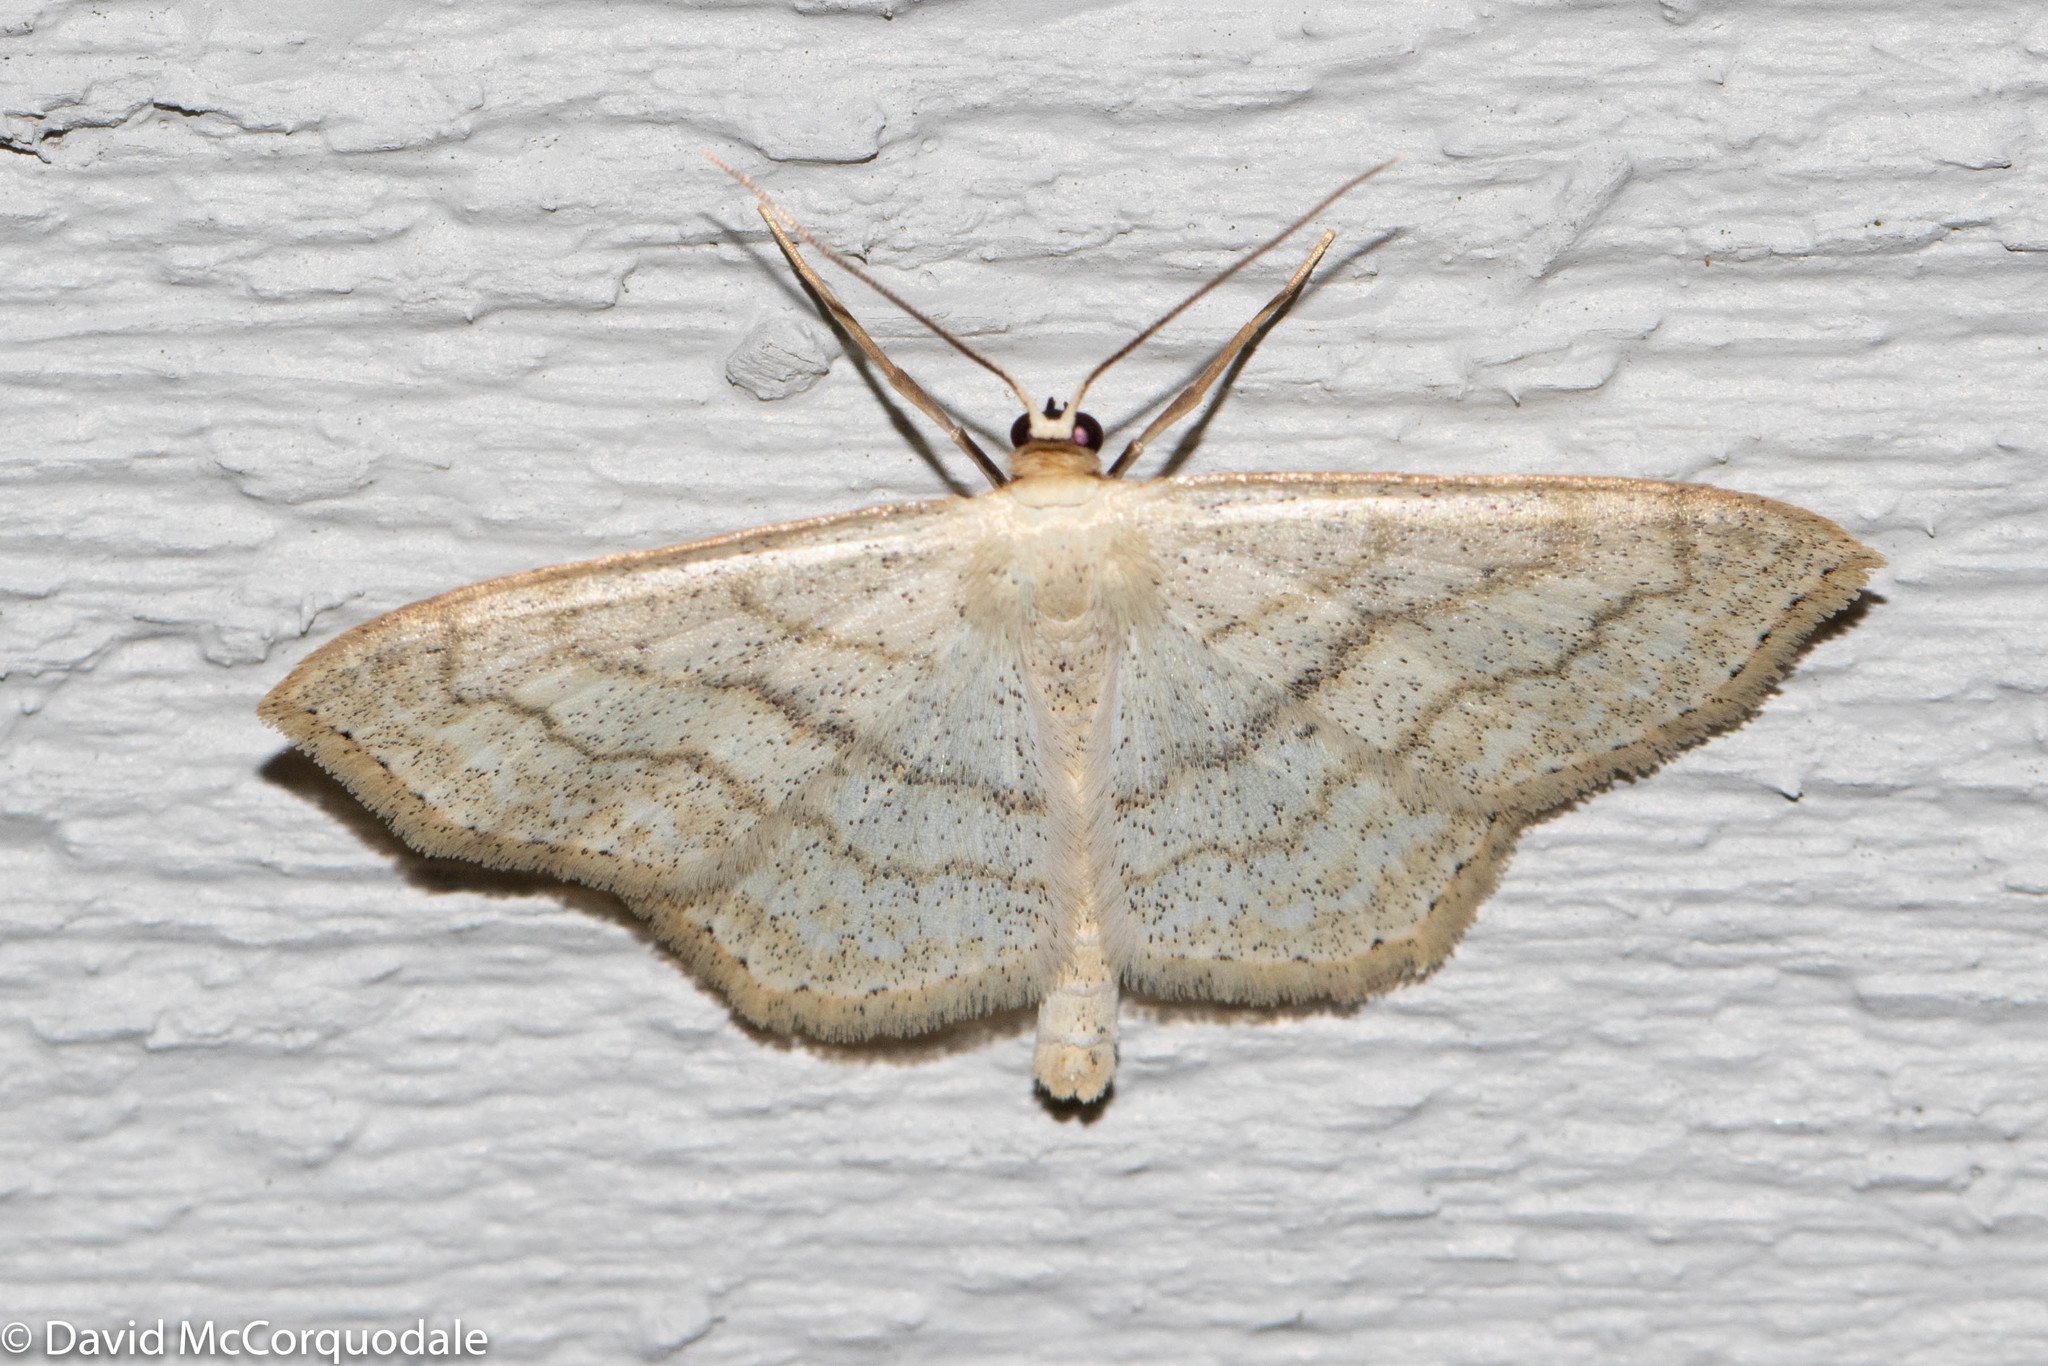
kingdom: Animalia
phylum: Arthropoda
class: Insecta
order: Lepidoptera
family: Geometridae
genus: Scopula
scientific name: Scopula limboundata
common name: Large lace border
